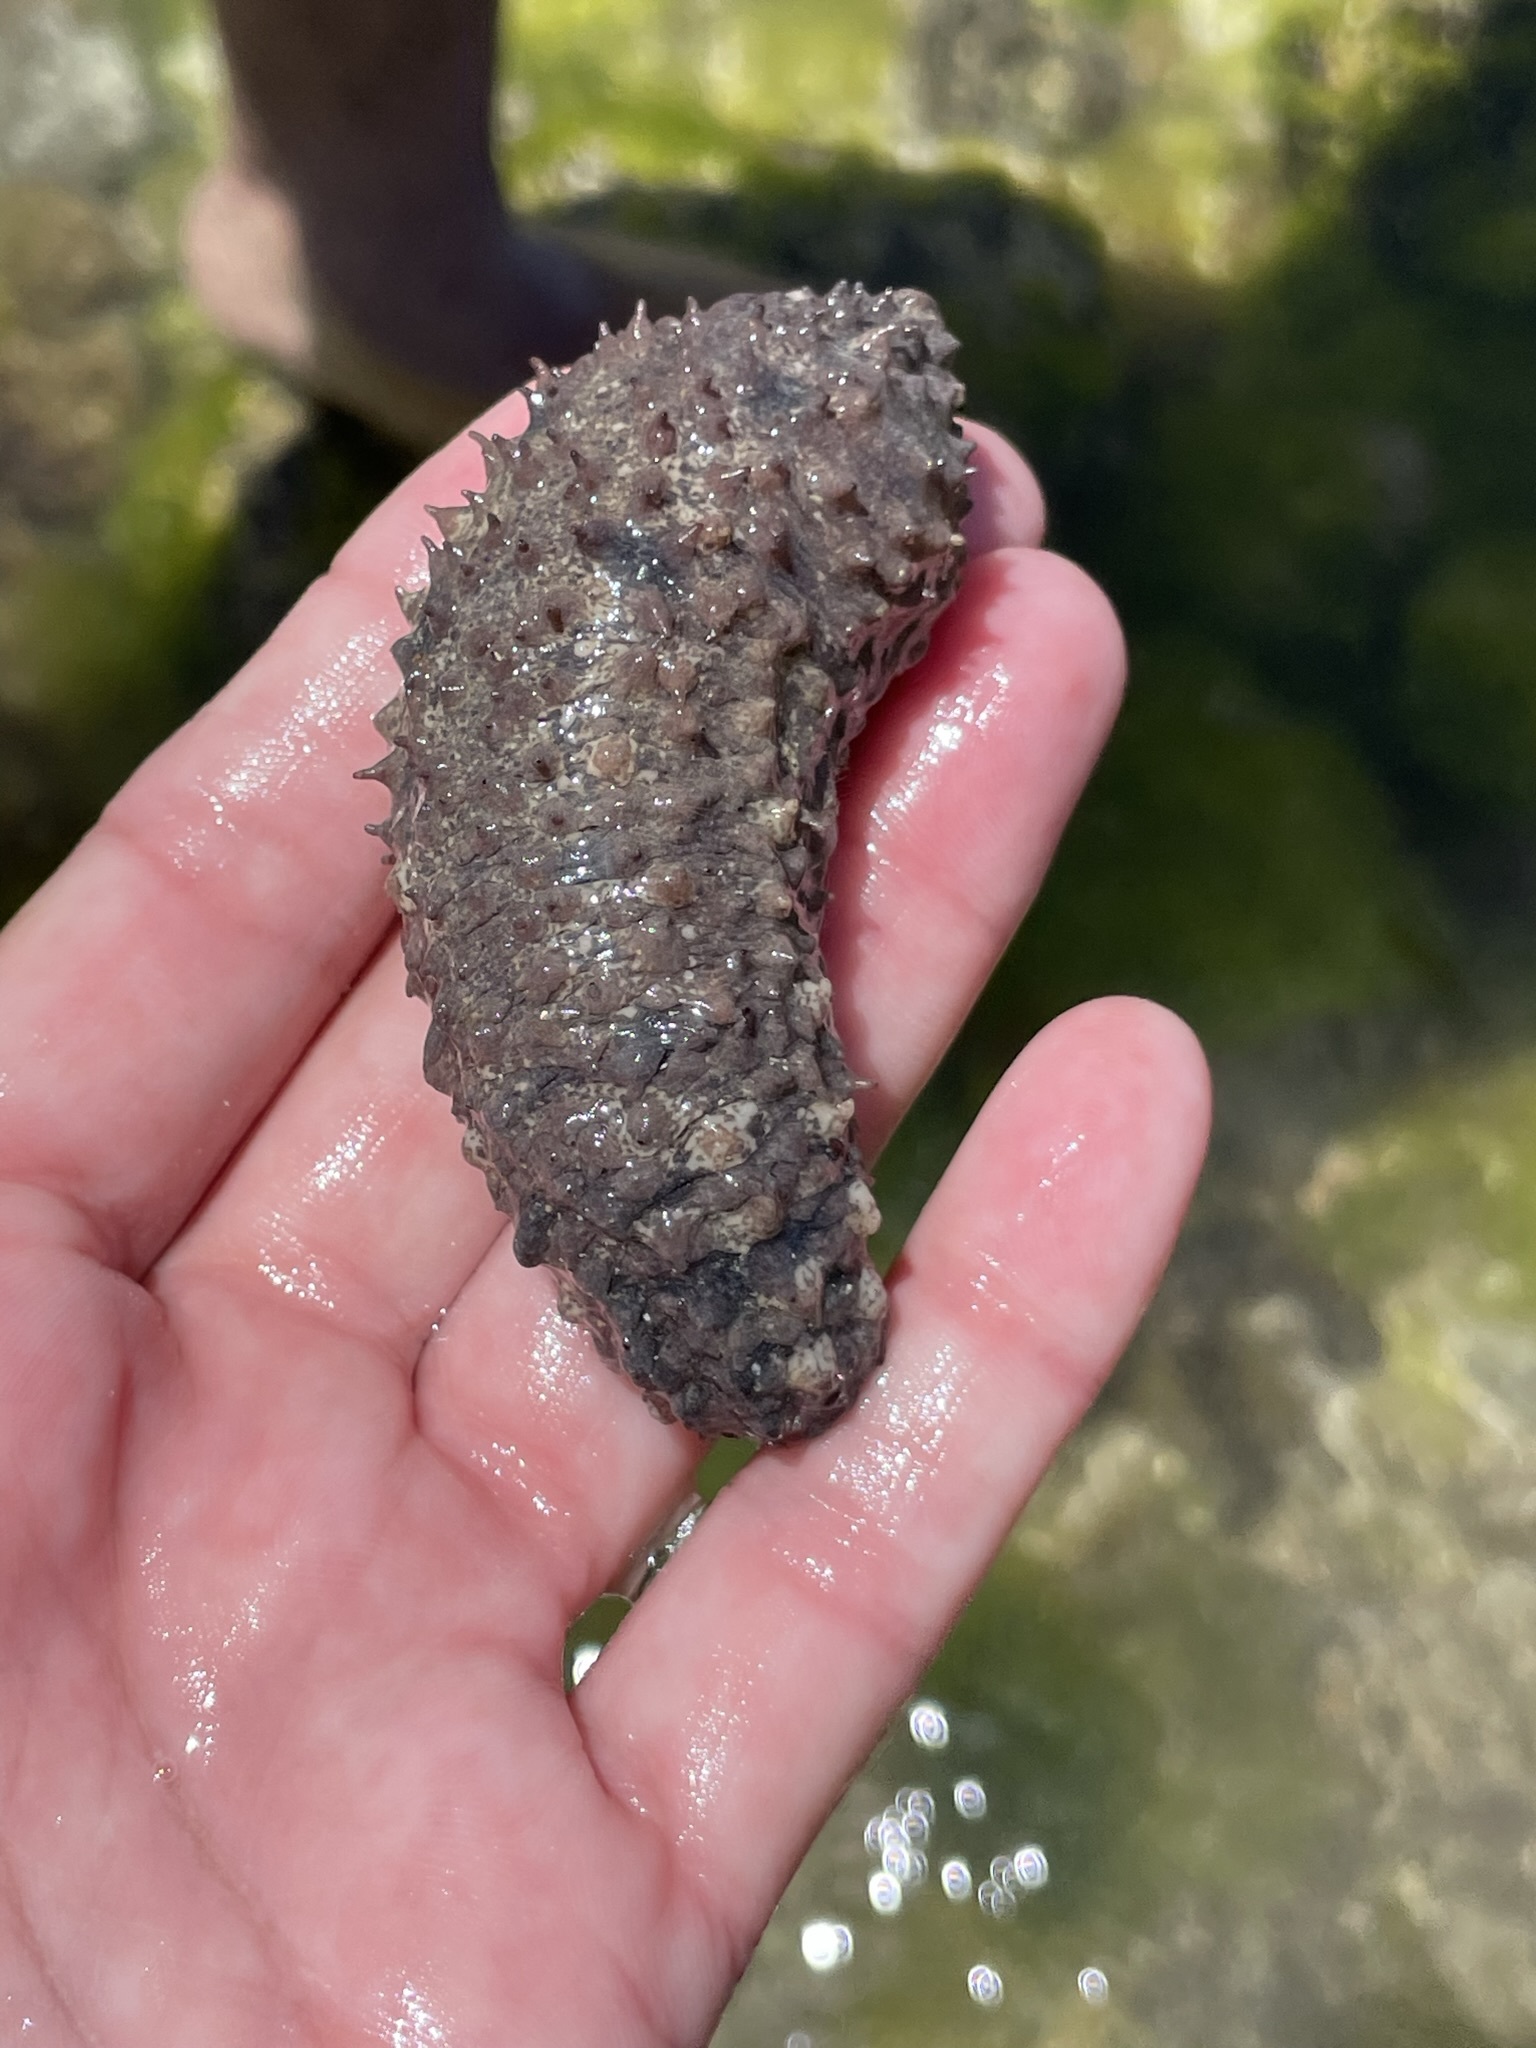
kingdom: Animalia
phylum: Echinodermata
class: Holothuroidea
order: Synallactida
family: Stichopodidae
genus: Isostichopus
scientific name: Isostichopus fuscus
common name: Brown sea cucumber
